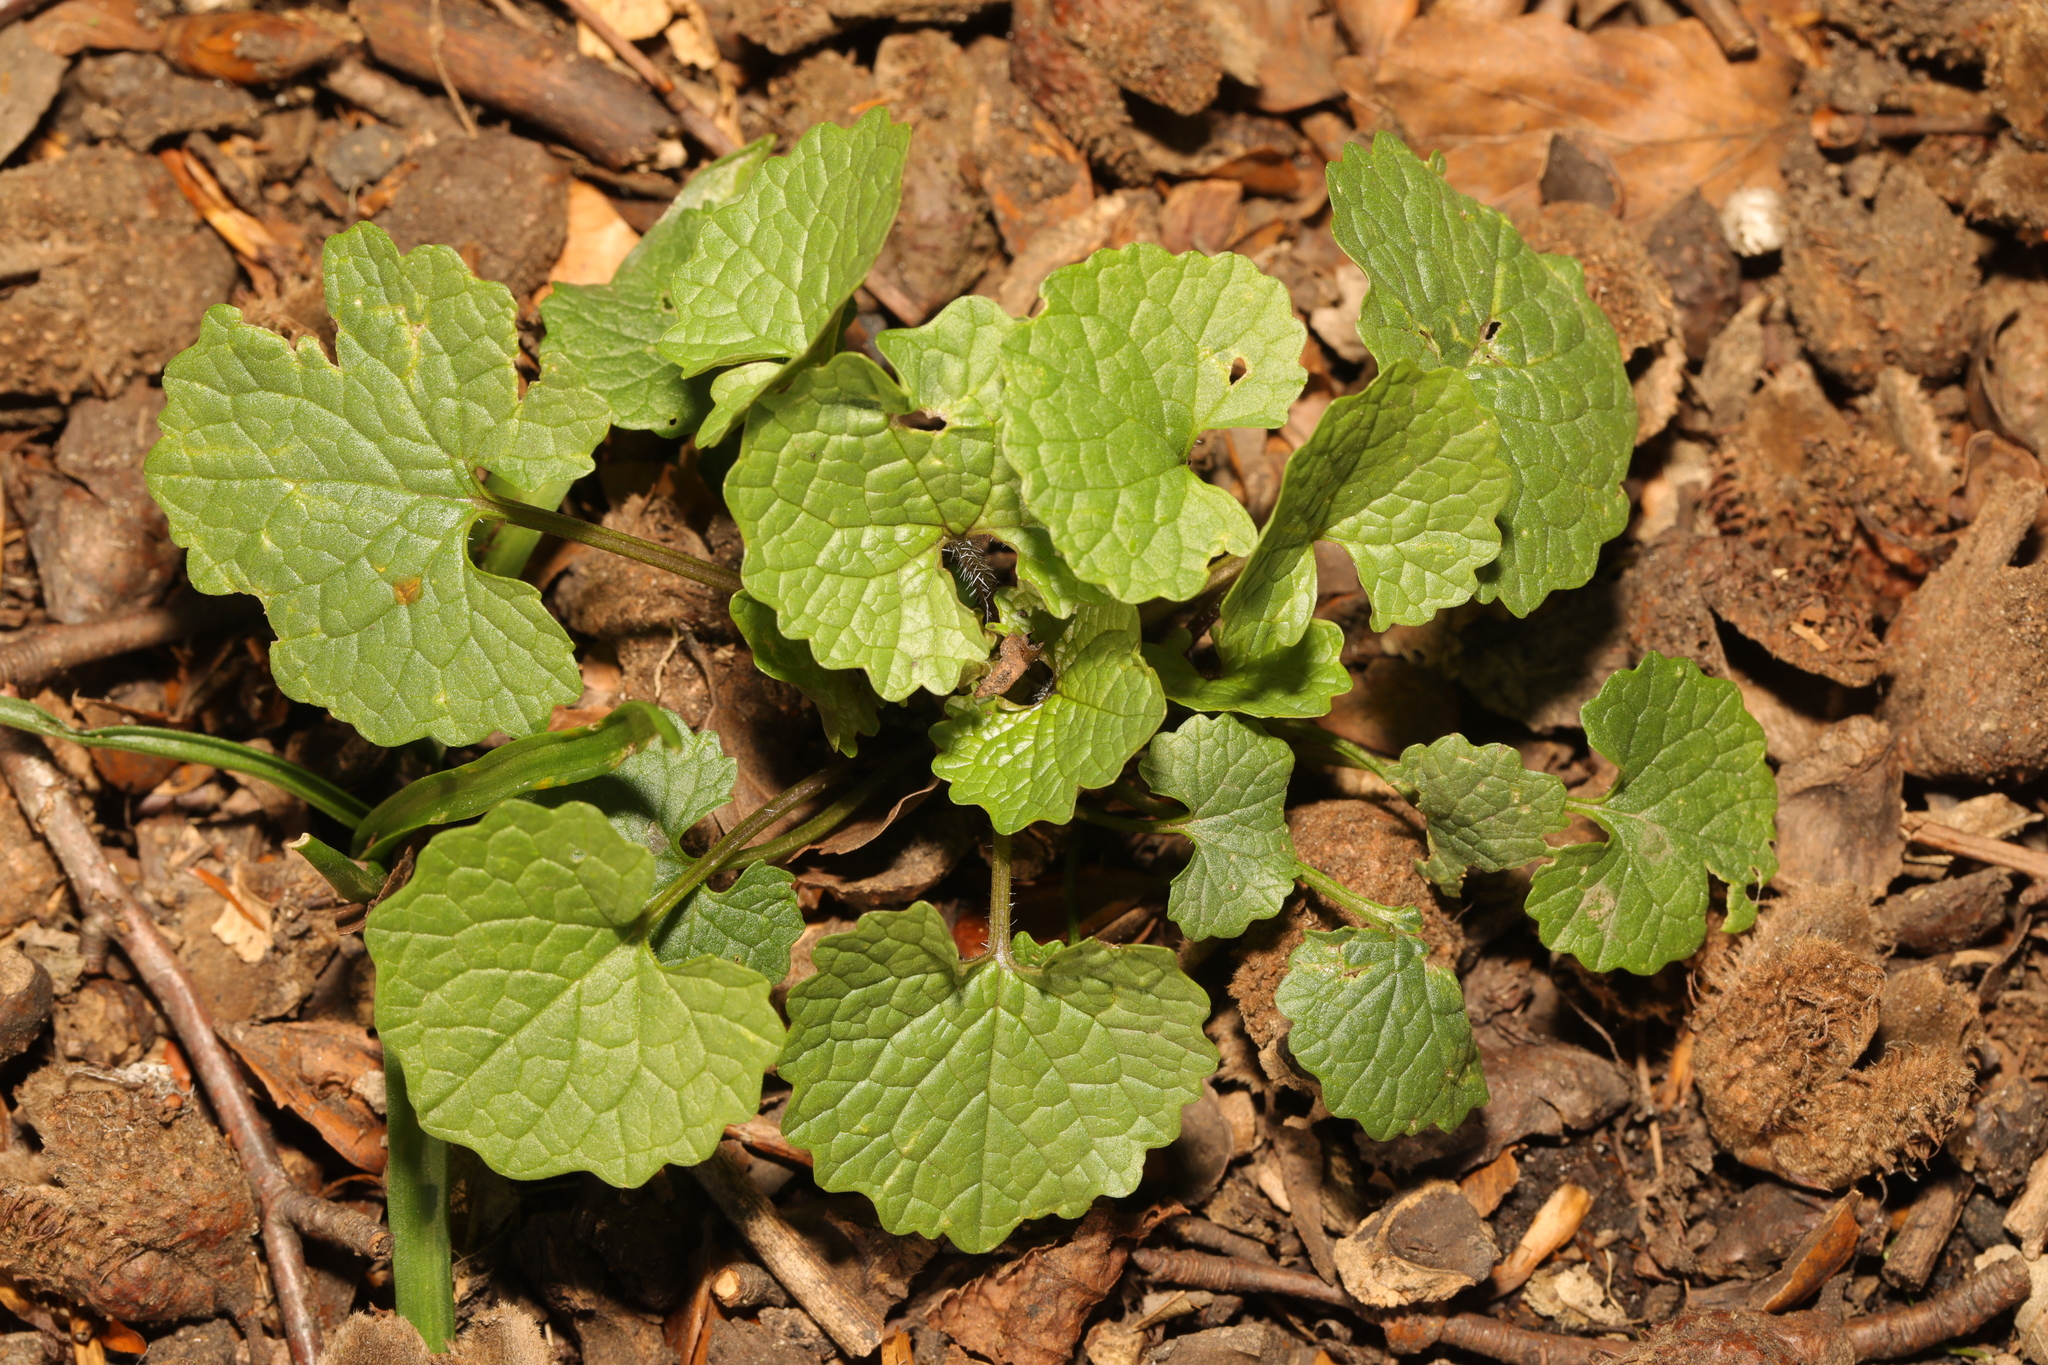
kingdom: Plantae
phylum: Tracheophyta
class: Magnoliopsida
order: Brassicales
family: Brassicaceae
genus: Alliaria
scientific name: Alliaria petiolata
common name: Garlic mustard
